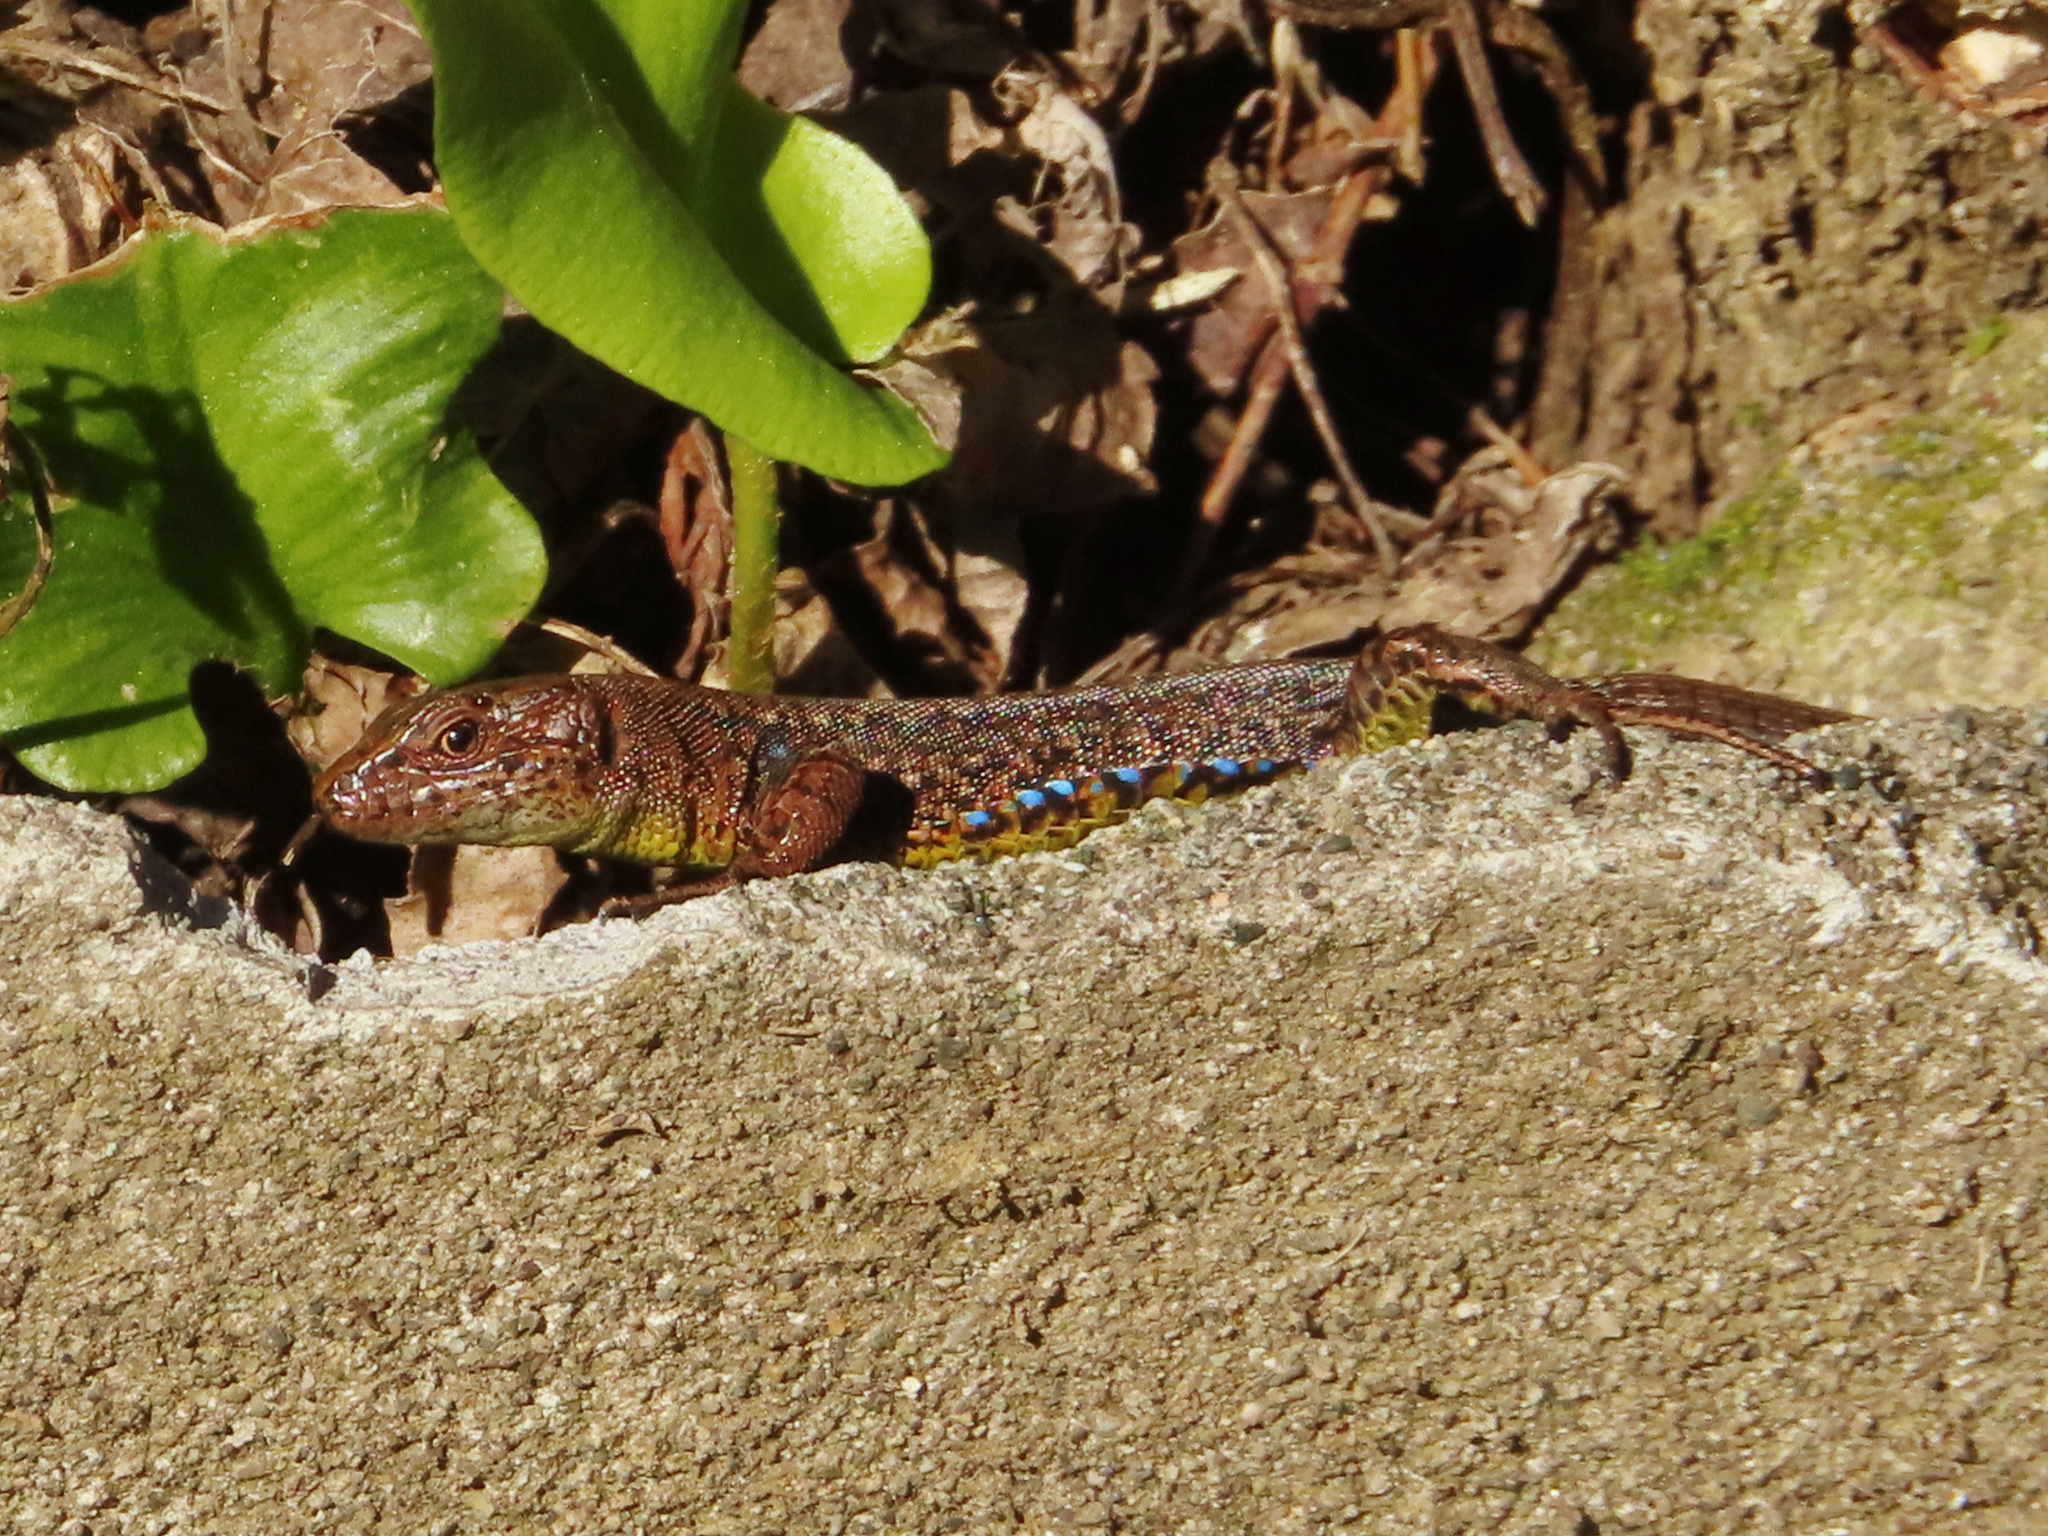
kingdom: Animalia
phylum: Chordata
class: Squamata
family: Lacertidae
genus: Darevskia
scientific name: Darevskia derjugini
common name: Derjugin's lizard
